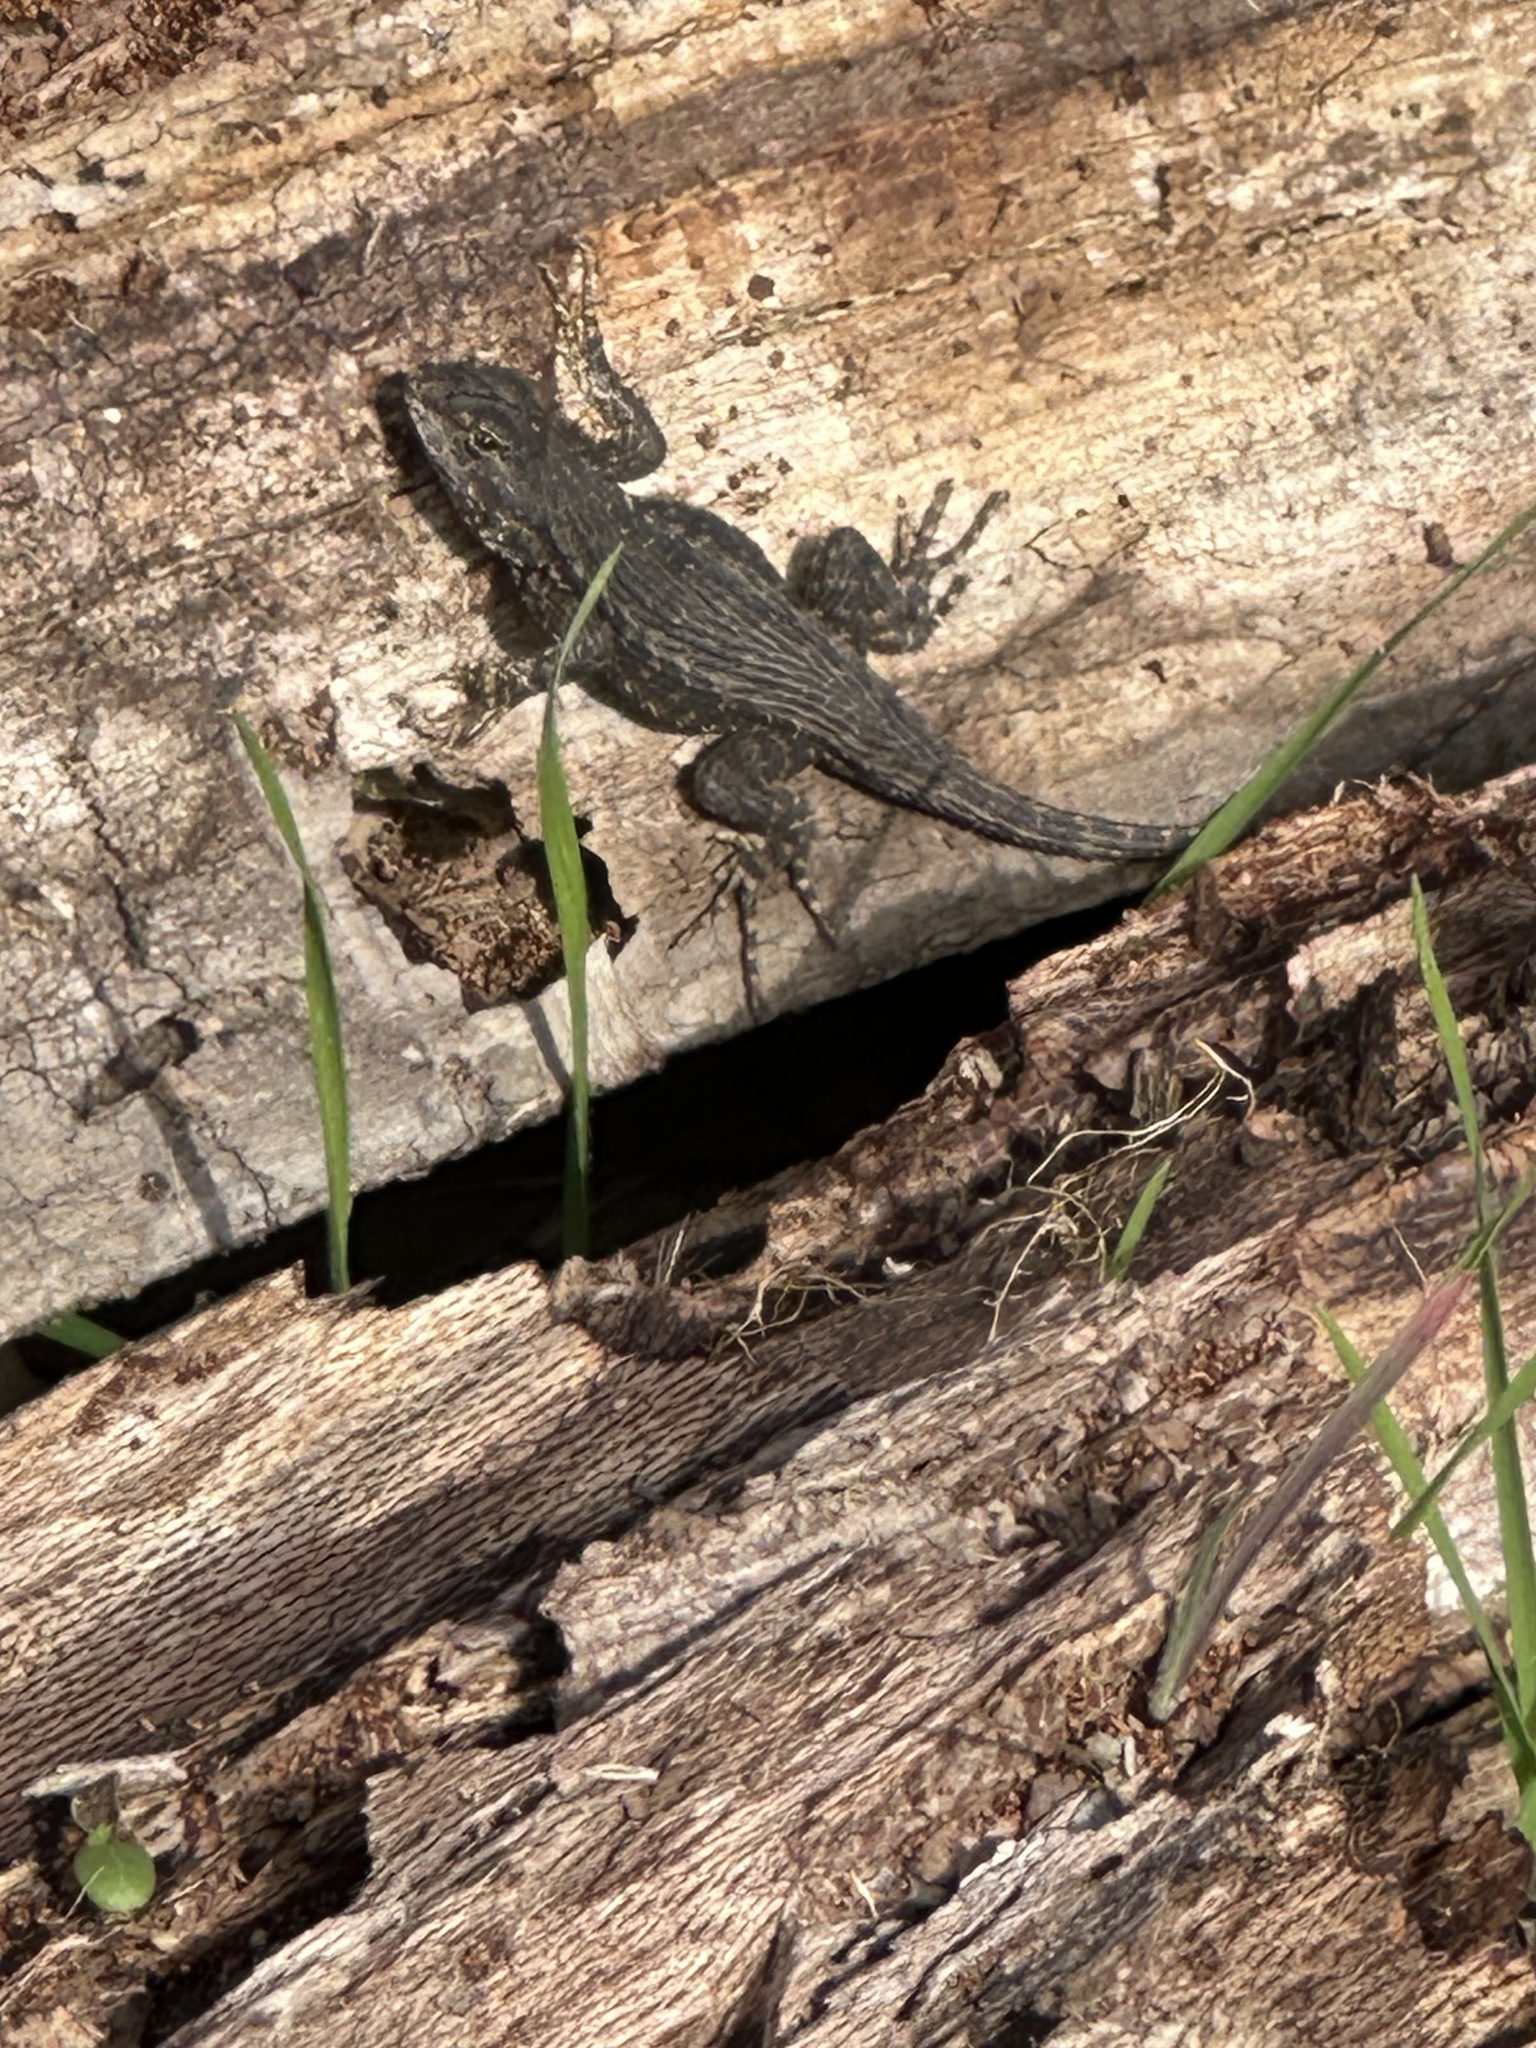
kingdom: Animalia
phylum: Chordata
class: Squamata
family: Phrynosomatidae
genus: Sceloporus
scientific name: Sceloporus occidentalis
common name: Western fence lizard
